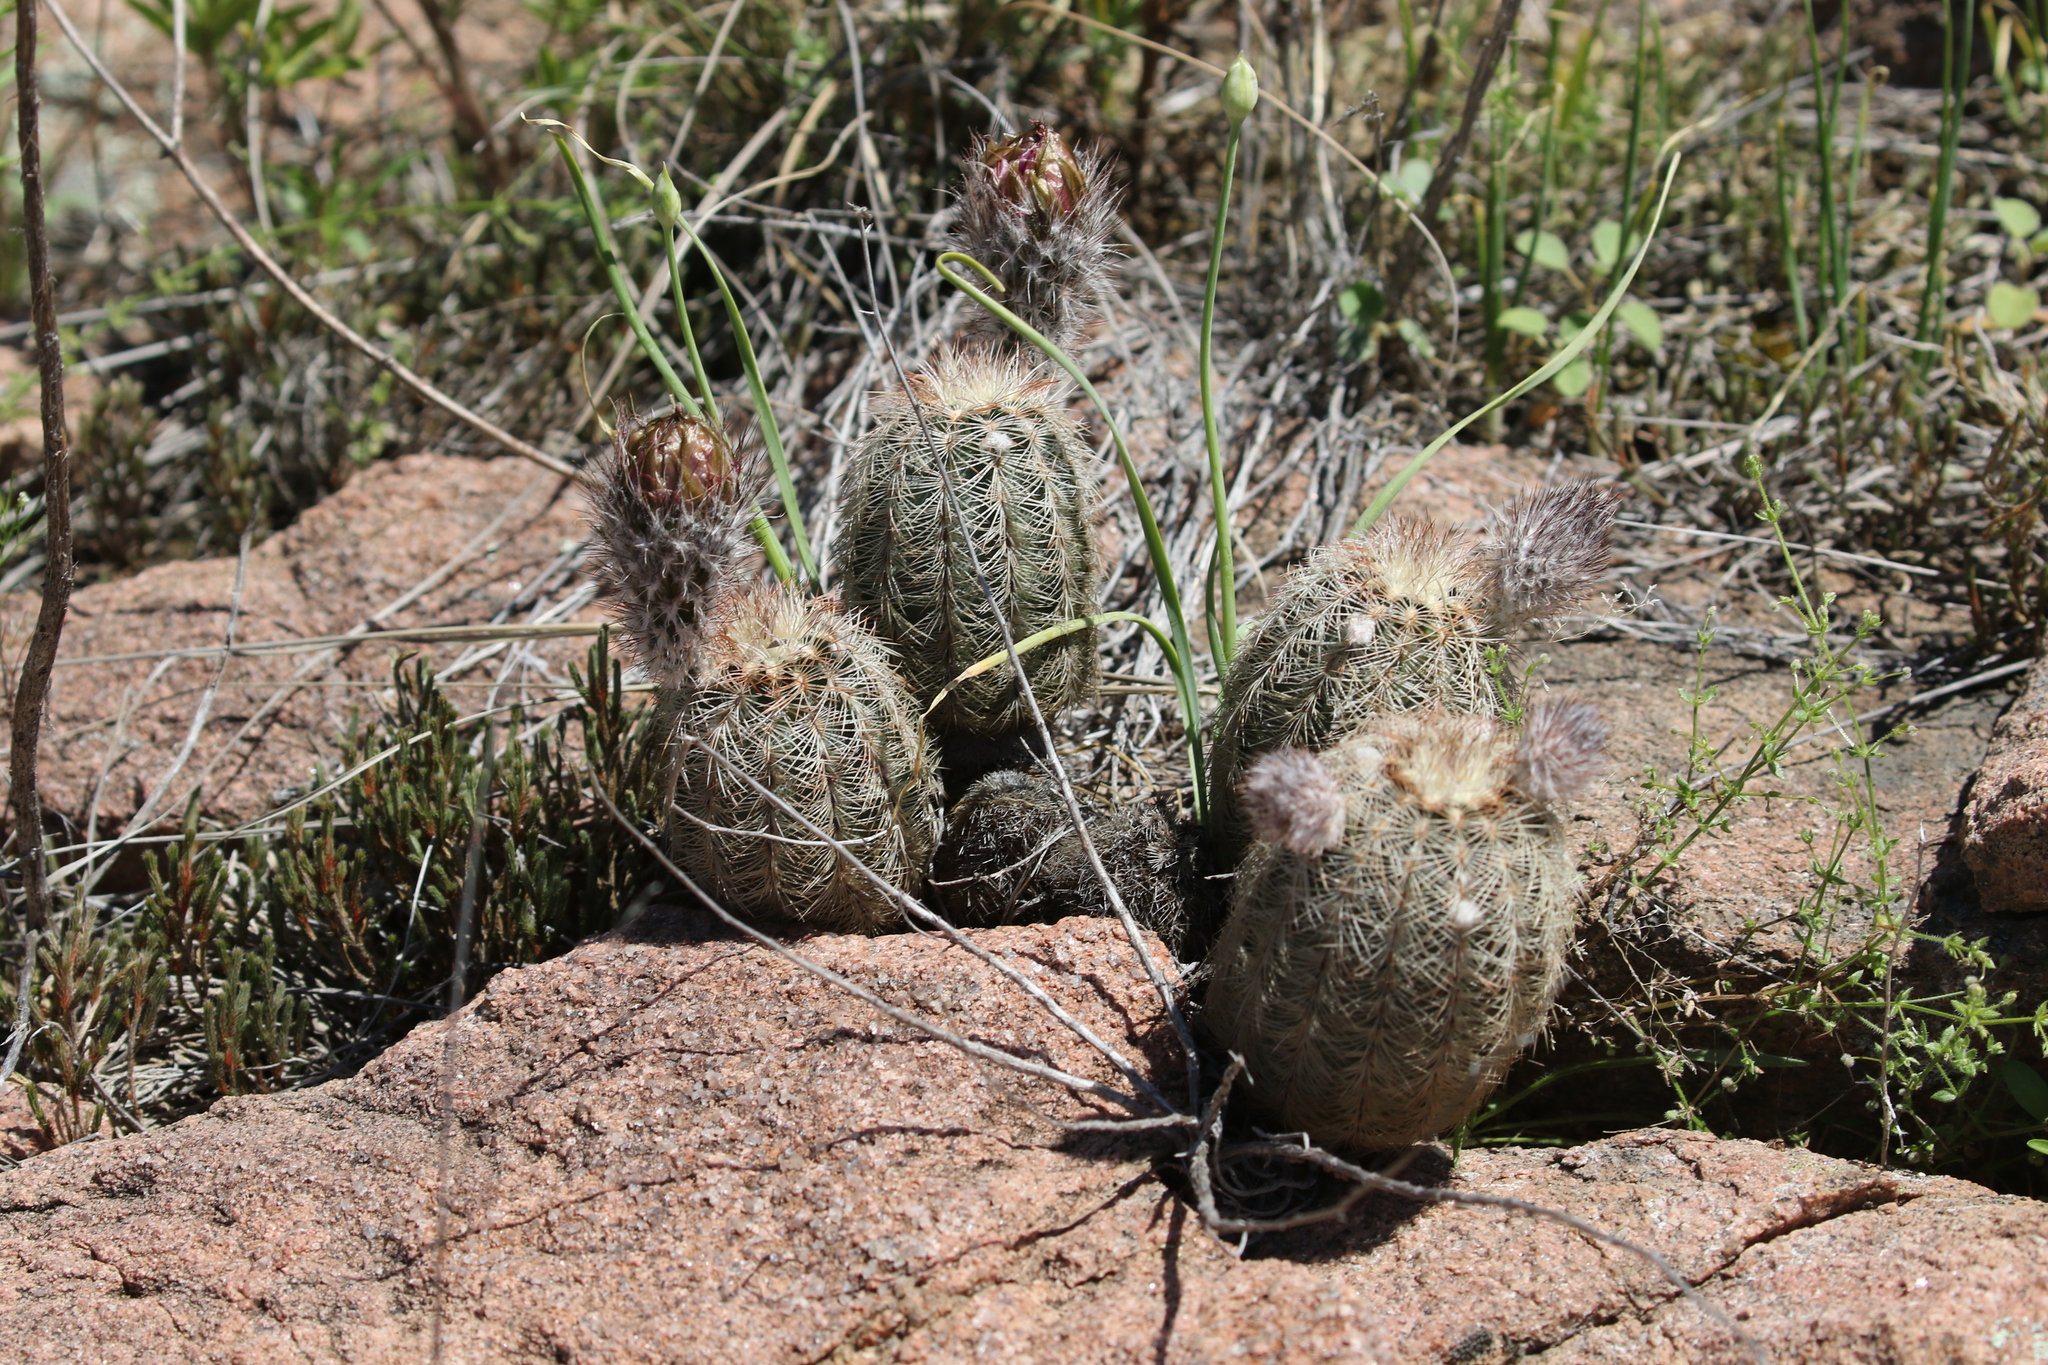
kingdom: Plantae
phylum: Tracheophyta
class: Magnoliopsida
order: Caryophyllales
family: Cactaceae
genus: Echinocereus
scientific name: Echinocereus reichenbachii
